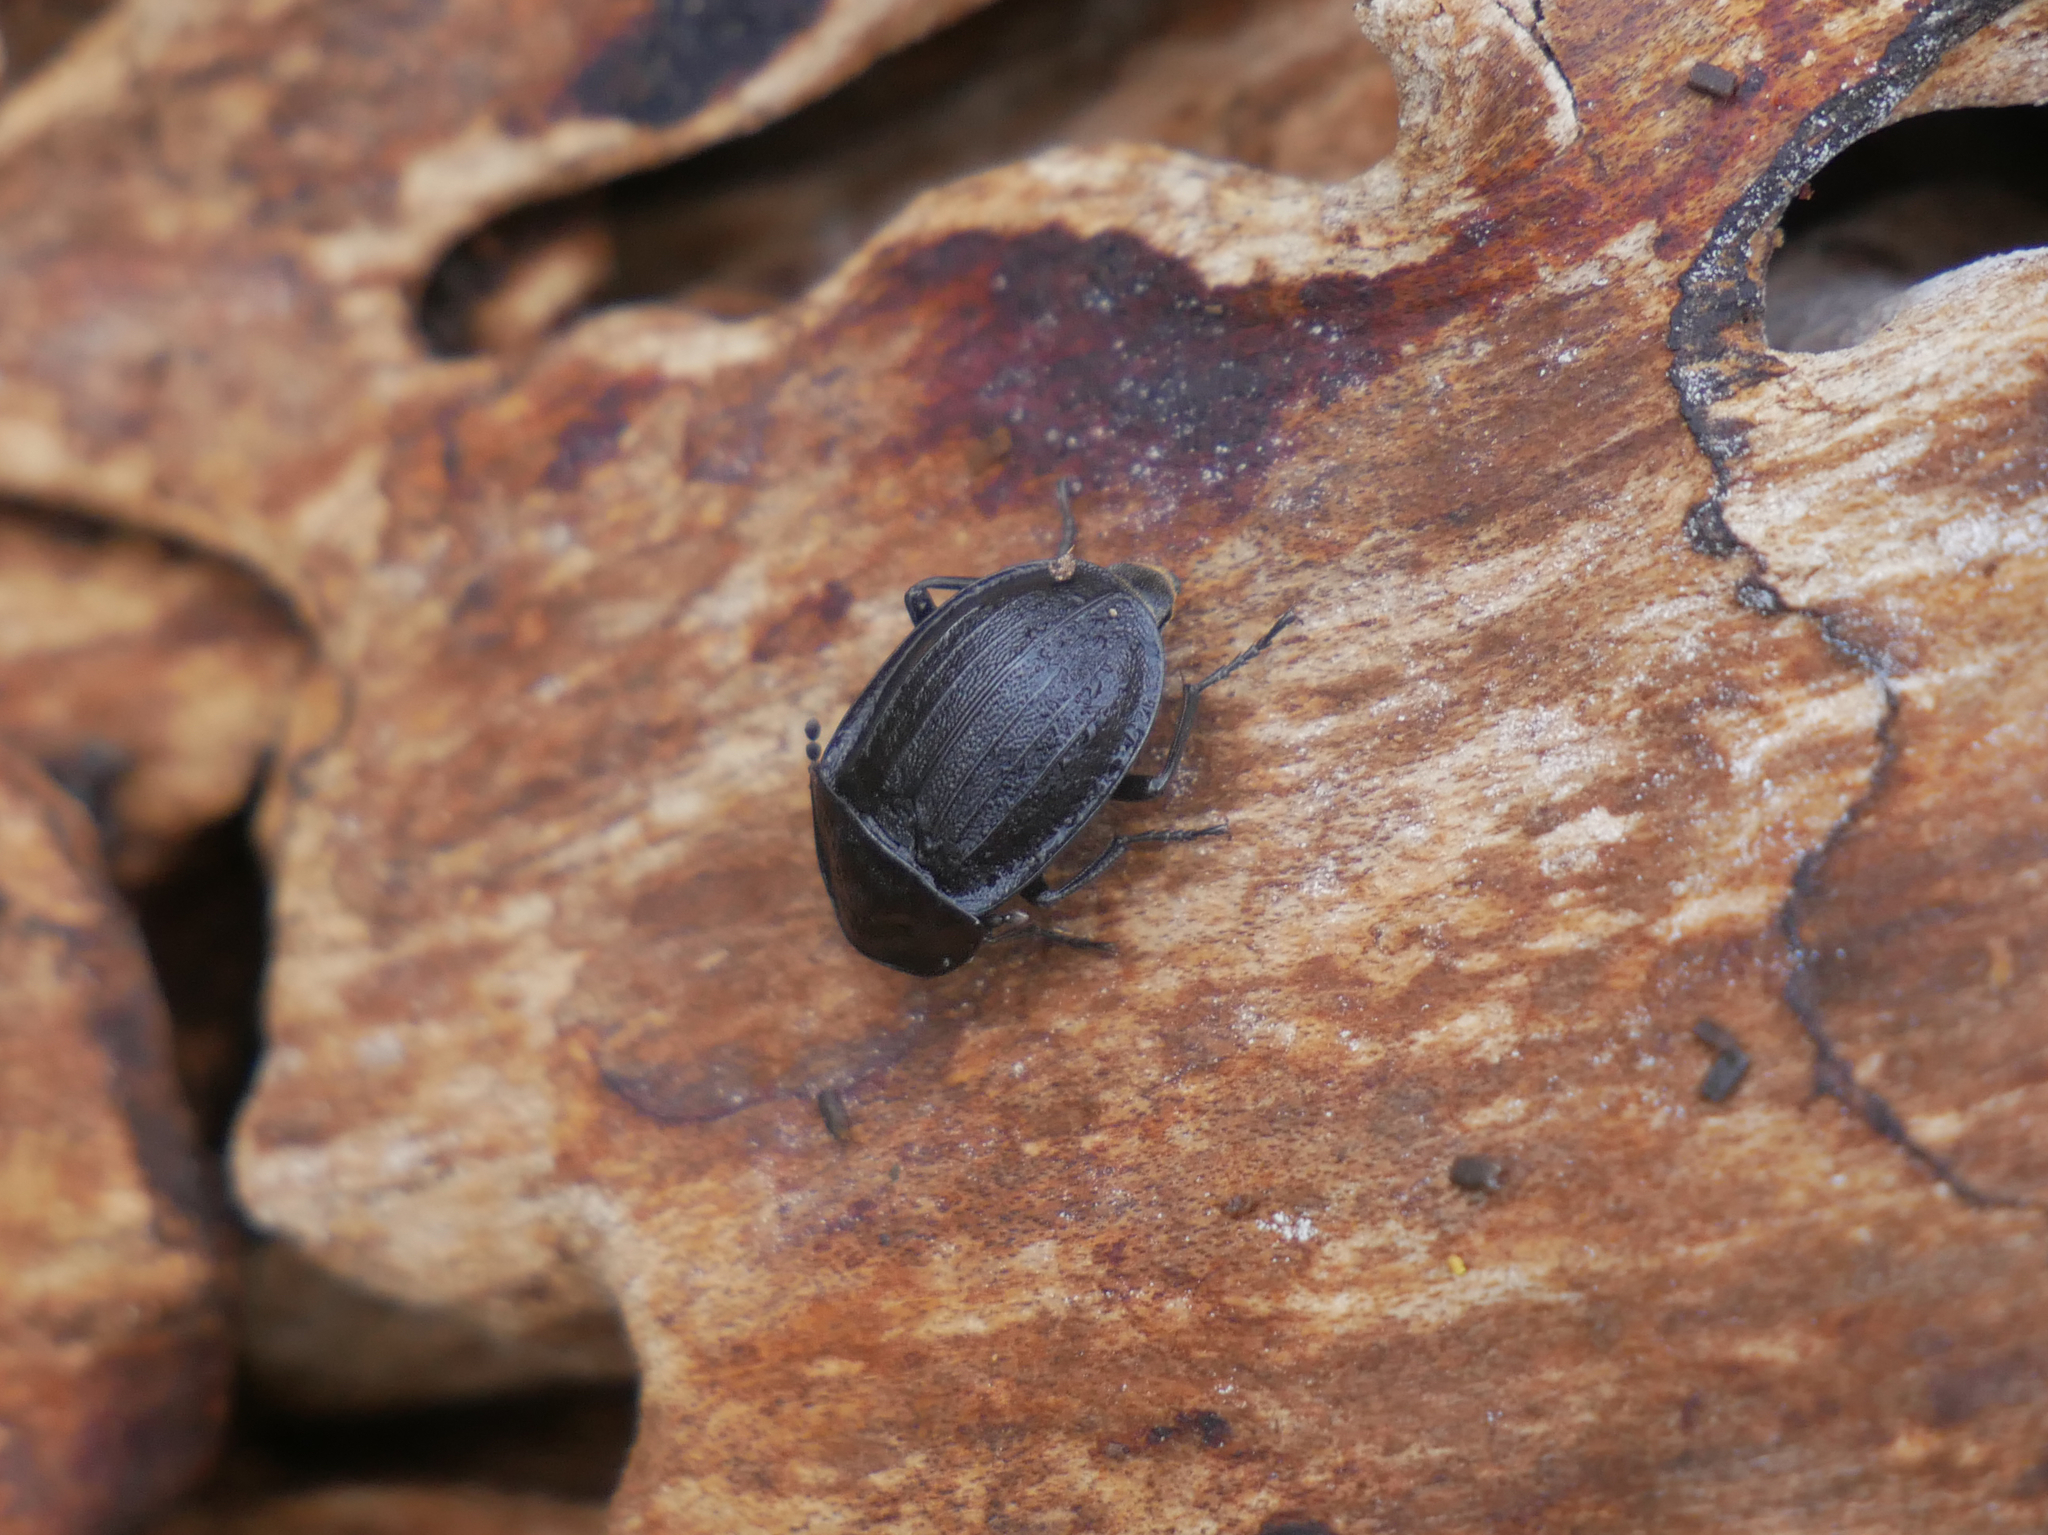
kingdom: Animalia
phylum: Arthropoda
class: Insecta
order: Coleoptera
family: Staphylinidae
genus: Silpha
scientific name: Silpha atrata
